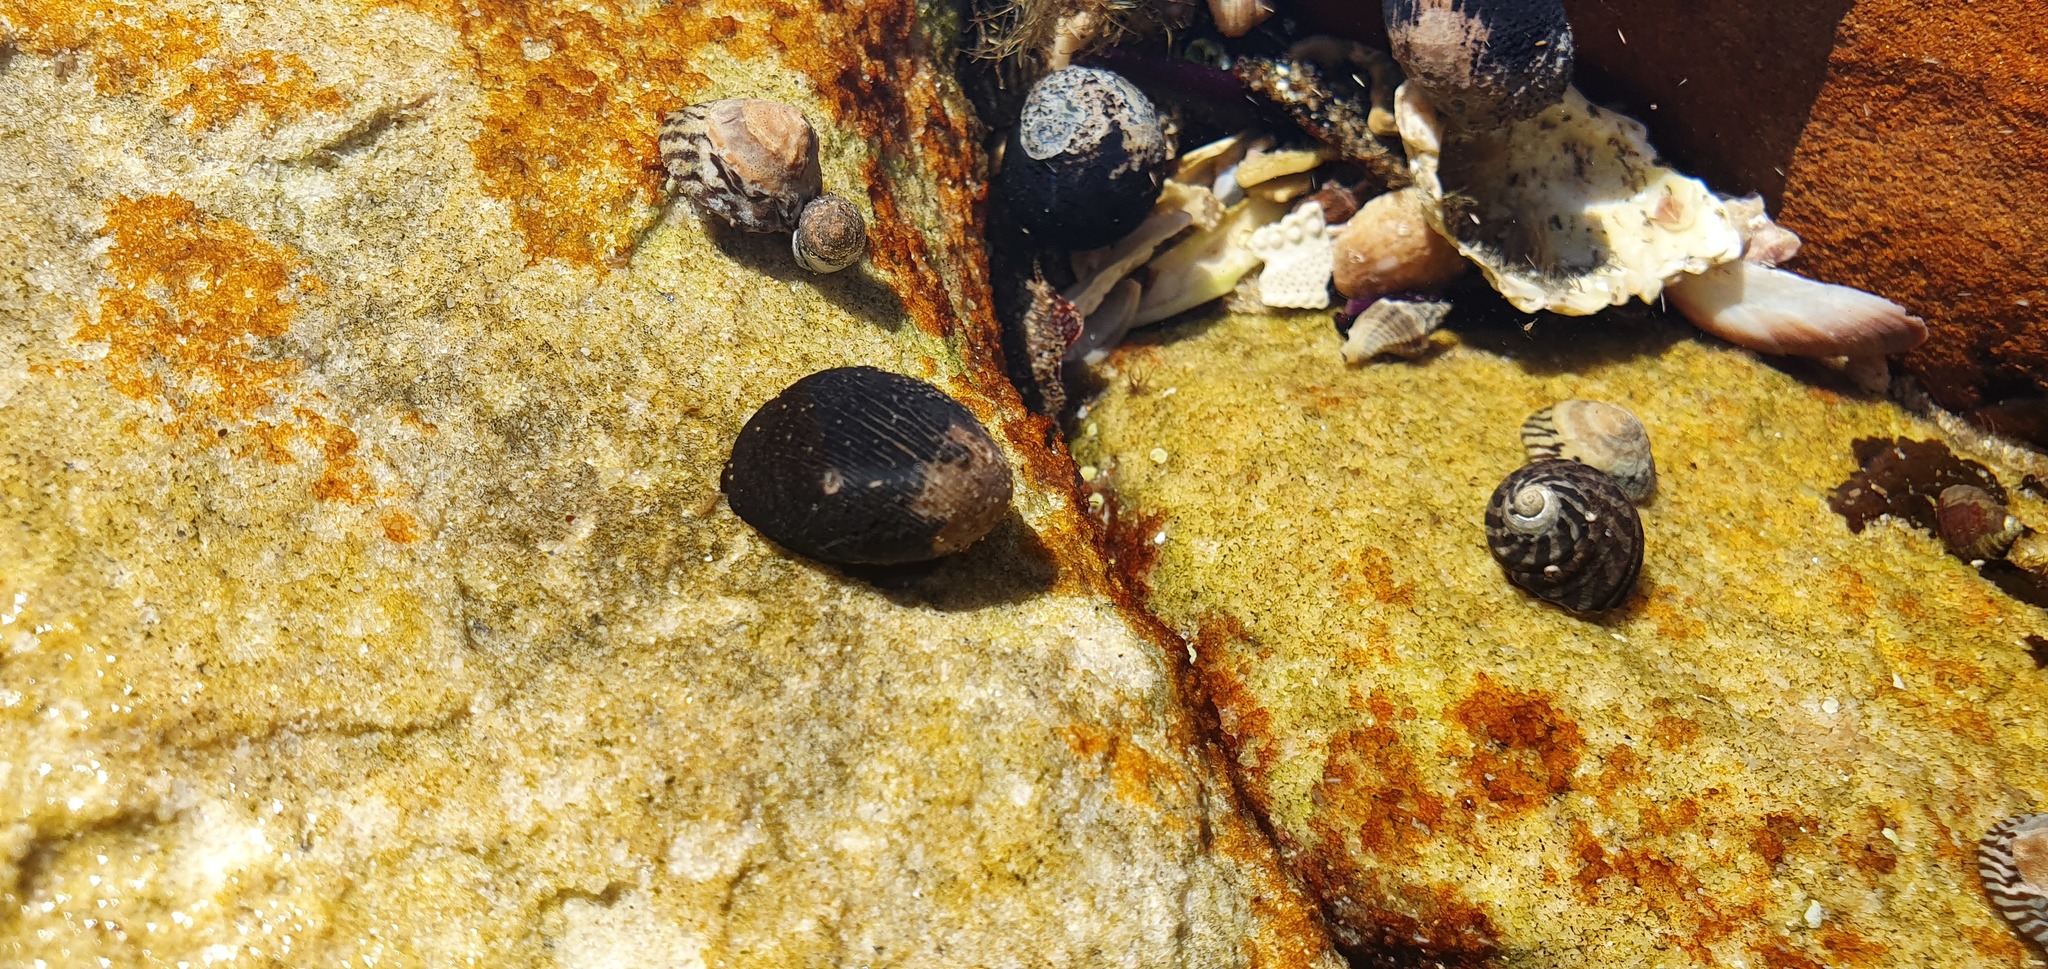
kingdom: Animalia
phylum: Mollusca
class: Gastropoda
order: Cycloneritida
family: Neritidae
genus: Nerita
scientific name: Nerita melanotragus
